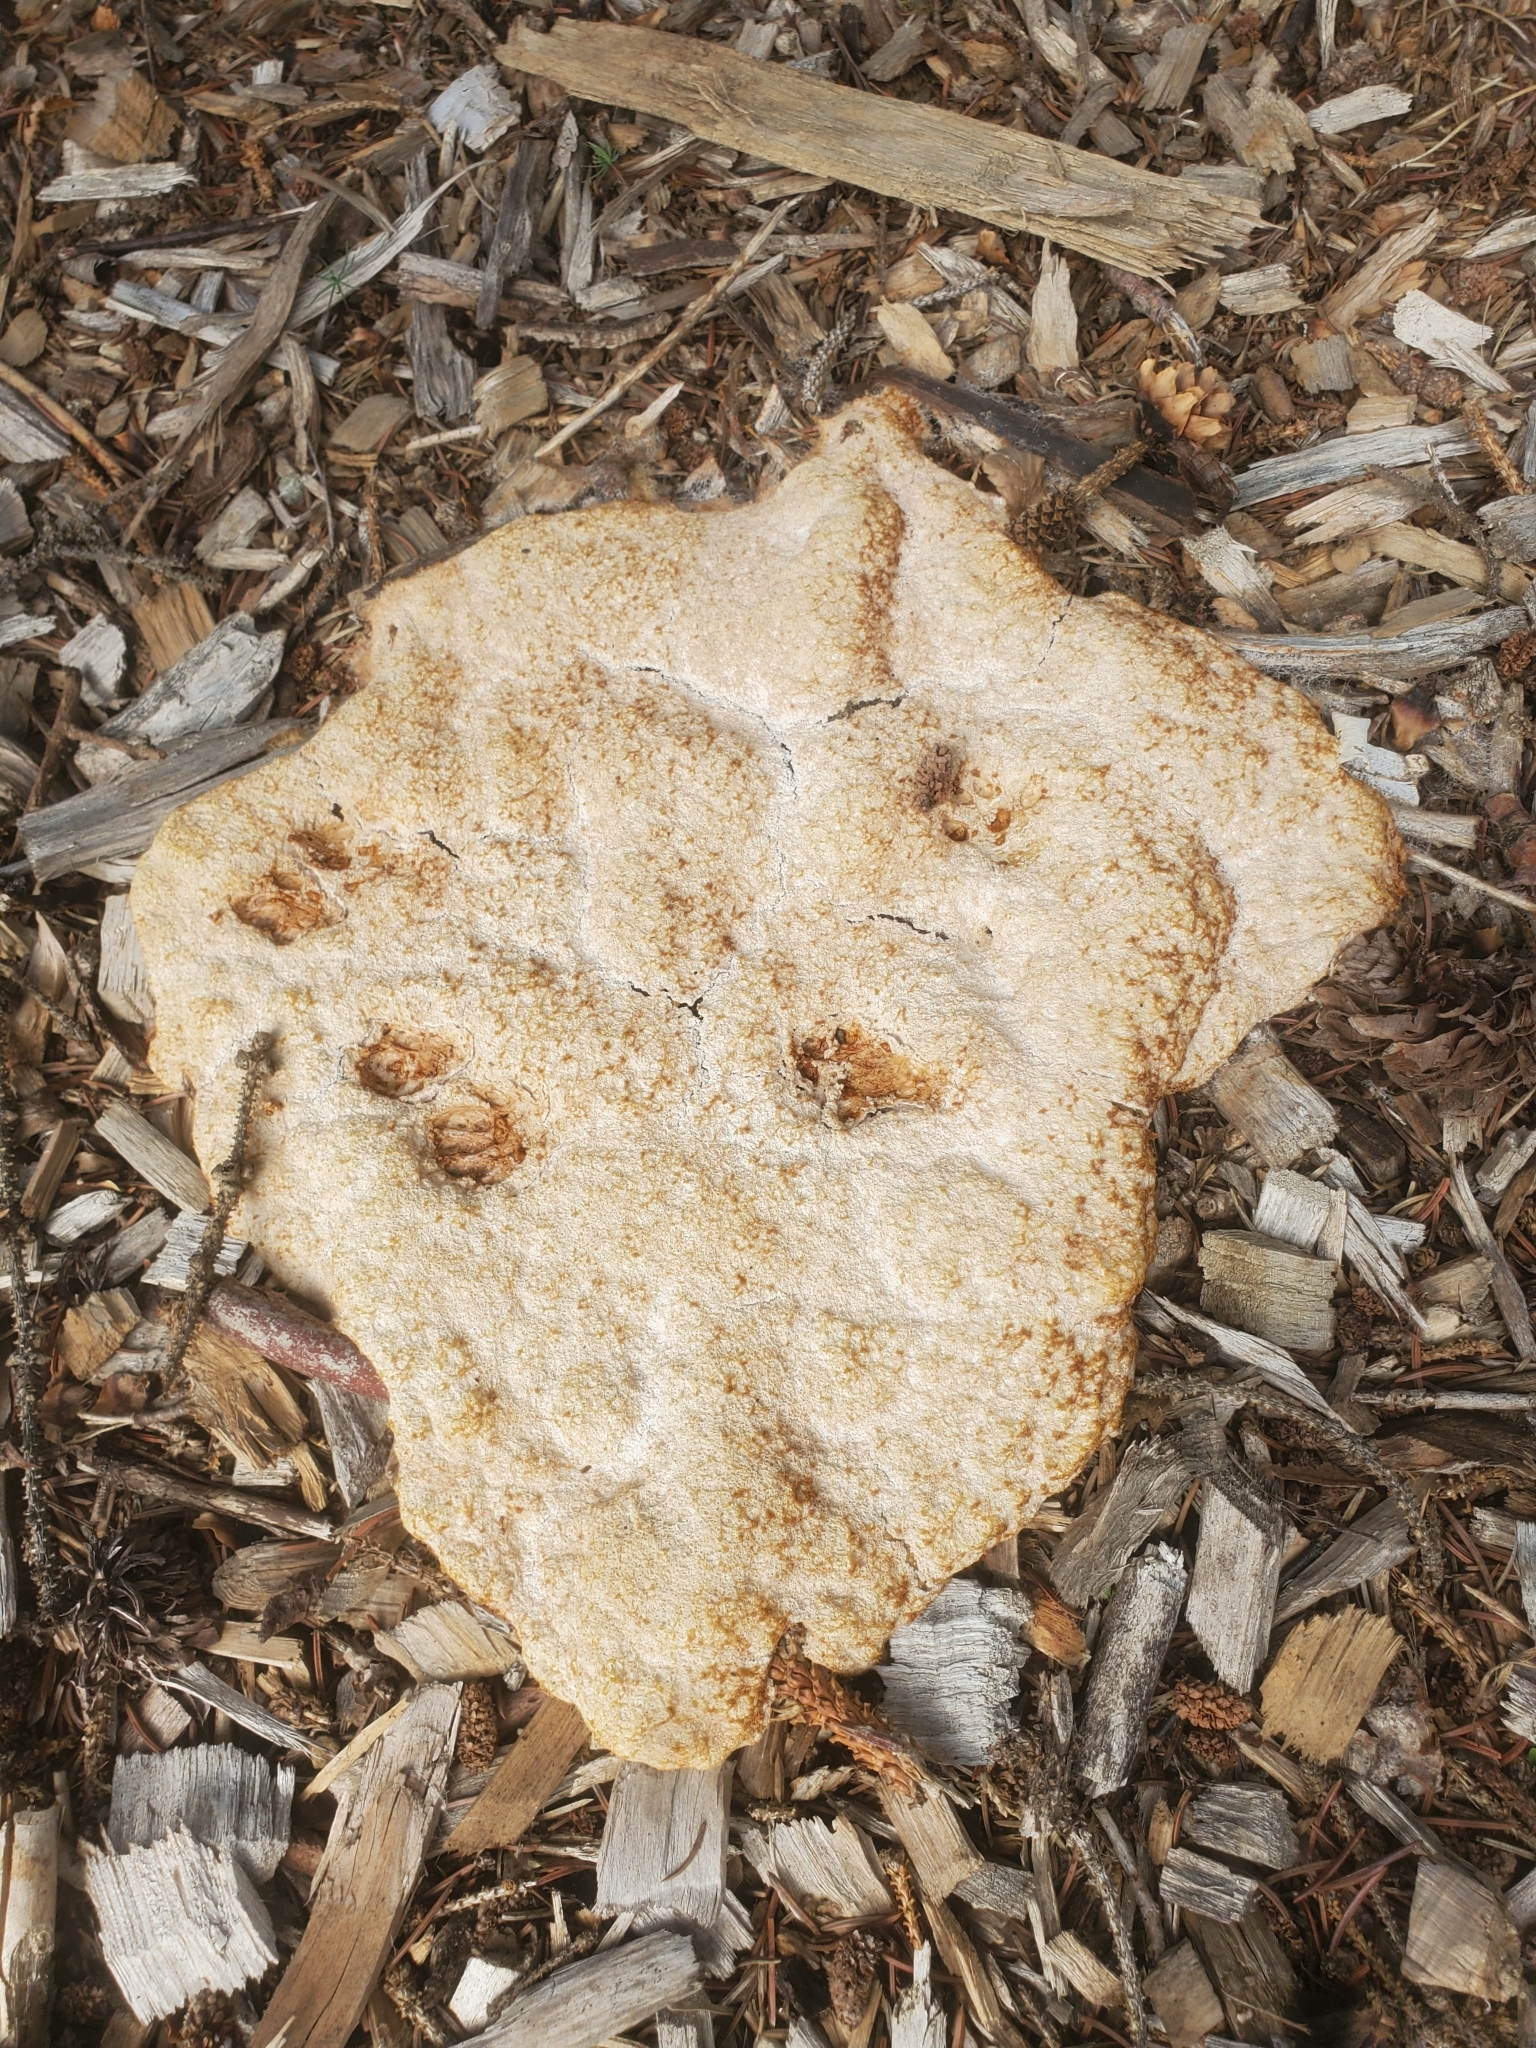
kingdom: Protozoa
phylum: Mycetozoa
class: Myxomycetes
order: Physarales
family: Physaraceae
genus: Fuligo
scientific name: Fuligo septica
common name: Dog vomit slime mold
